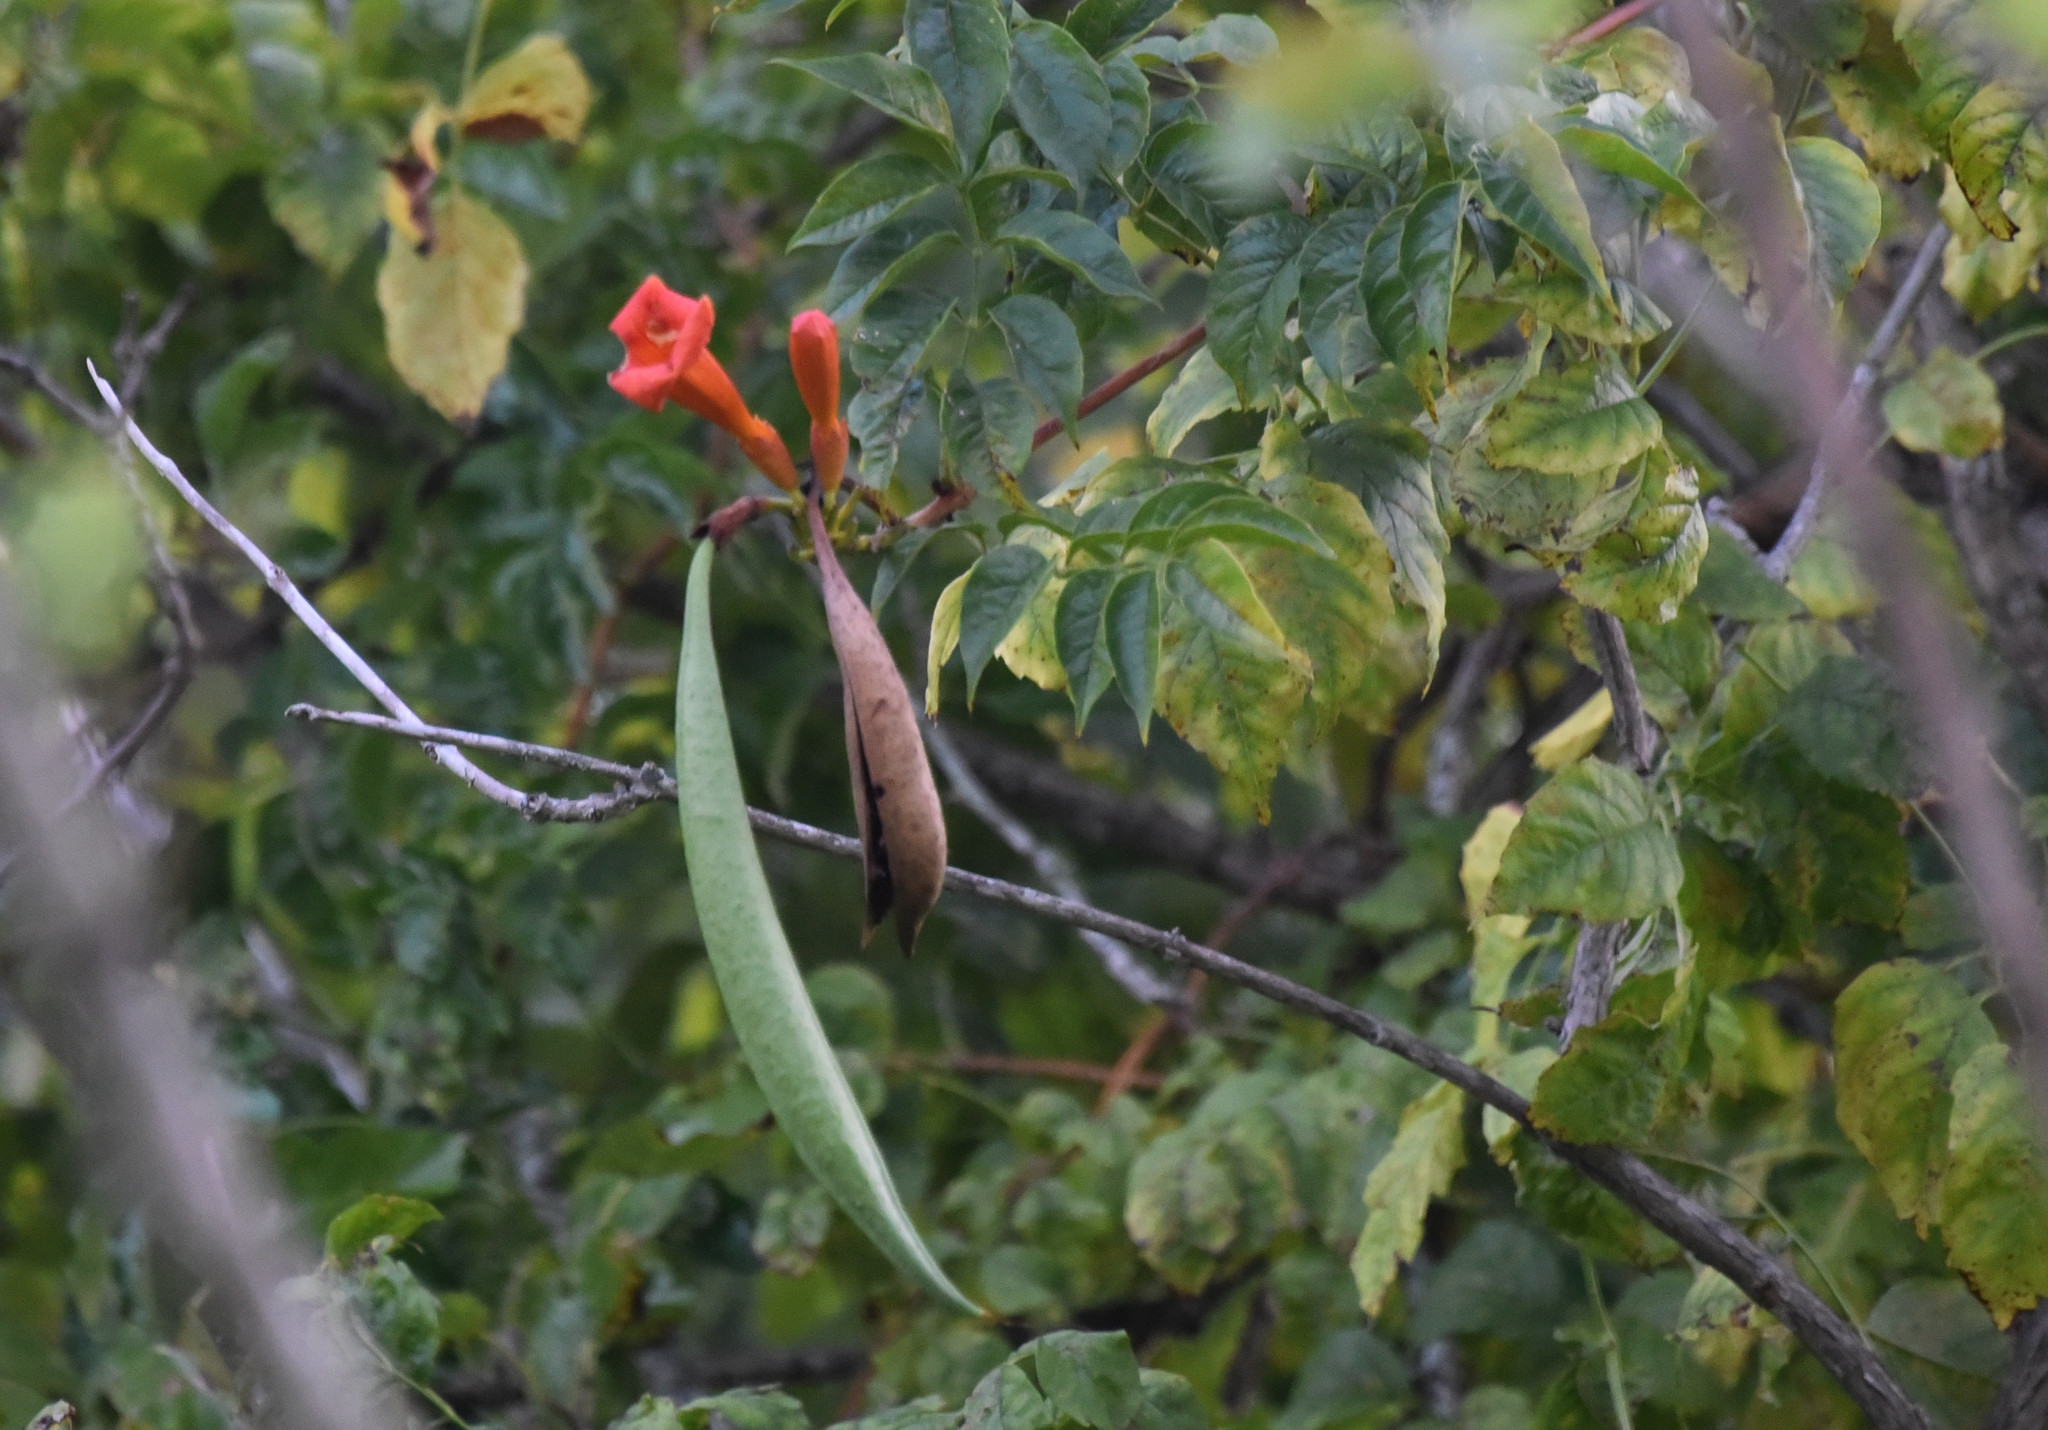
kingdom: Plantae
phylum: Tracheophyta
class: Magnoliopsida
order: Lamiales
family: Bignoniaceae
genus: Campsis
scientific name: Campsis radicans
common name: Trumpet-creeper
